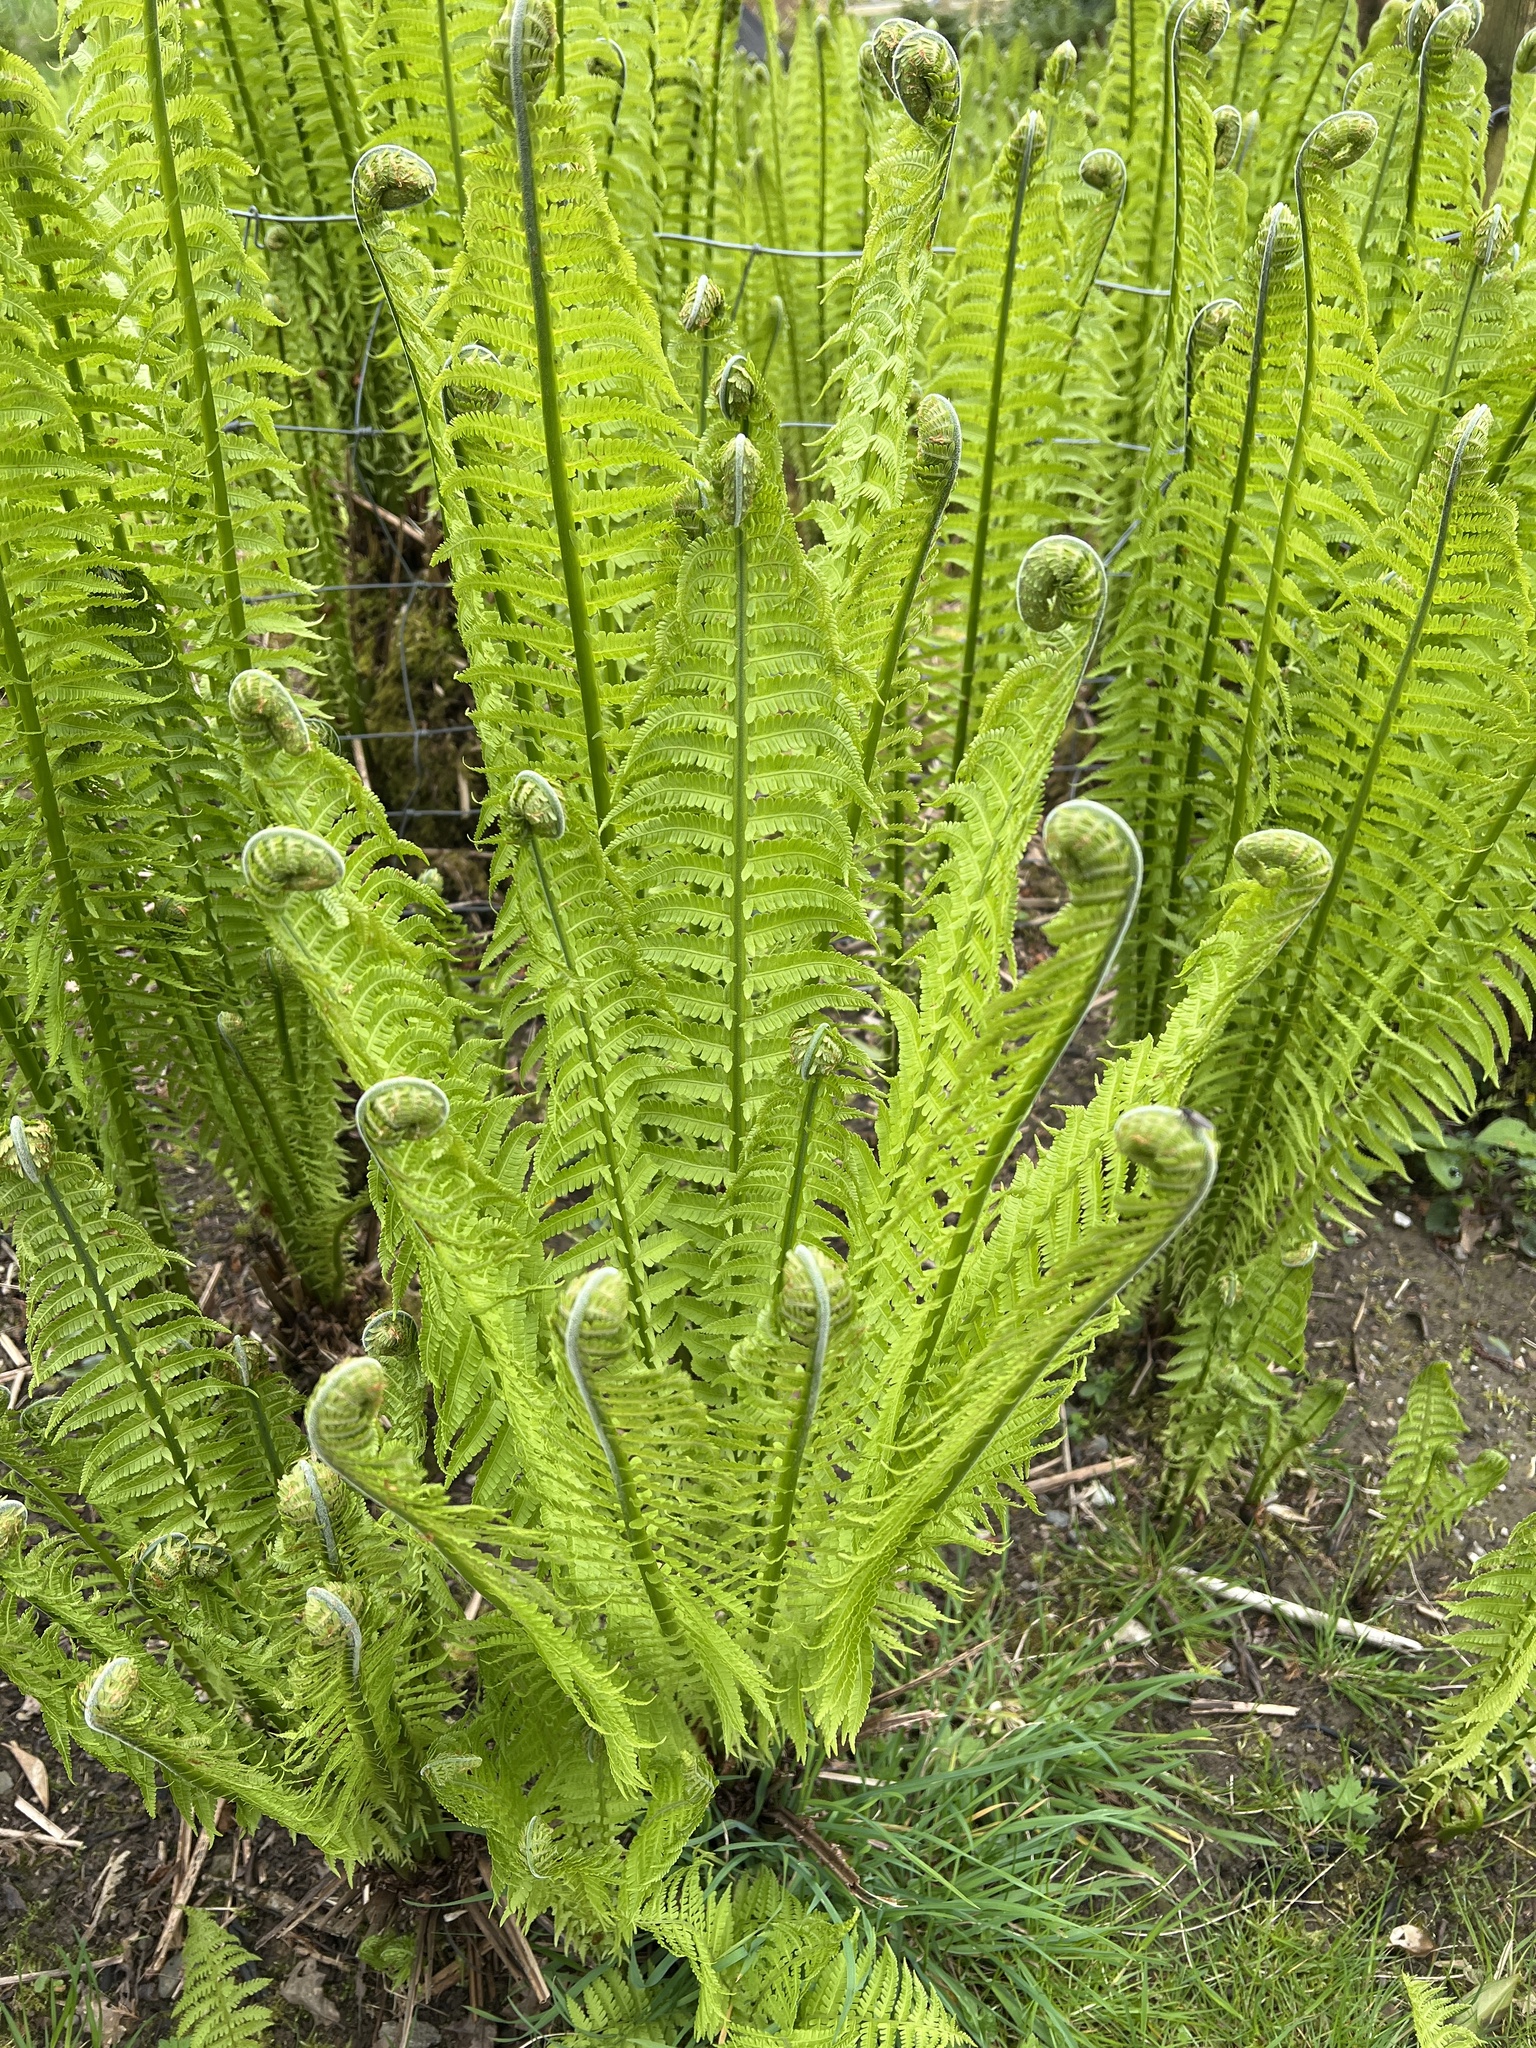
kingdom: Plantae
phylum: Tracheophyta
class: Polypodiopsida
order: Polypodiales
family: Onocleaceae
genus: Matteuccia
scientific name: Matteuccia struthiopteris
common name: Ostrich fern
